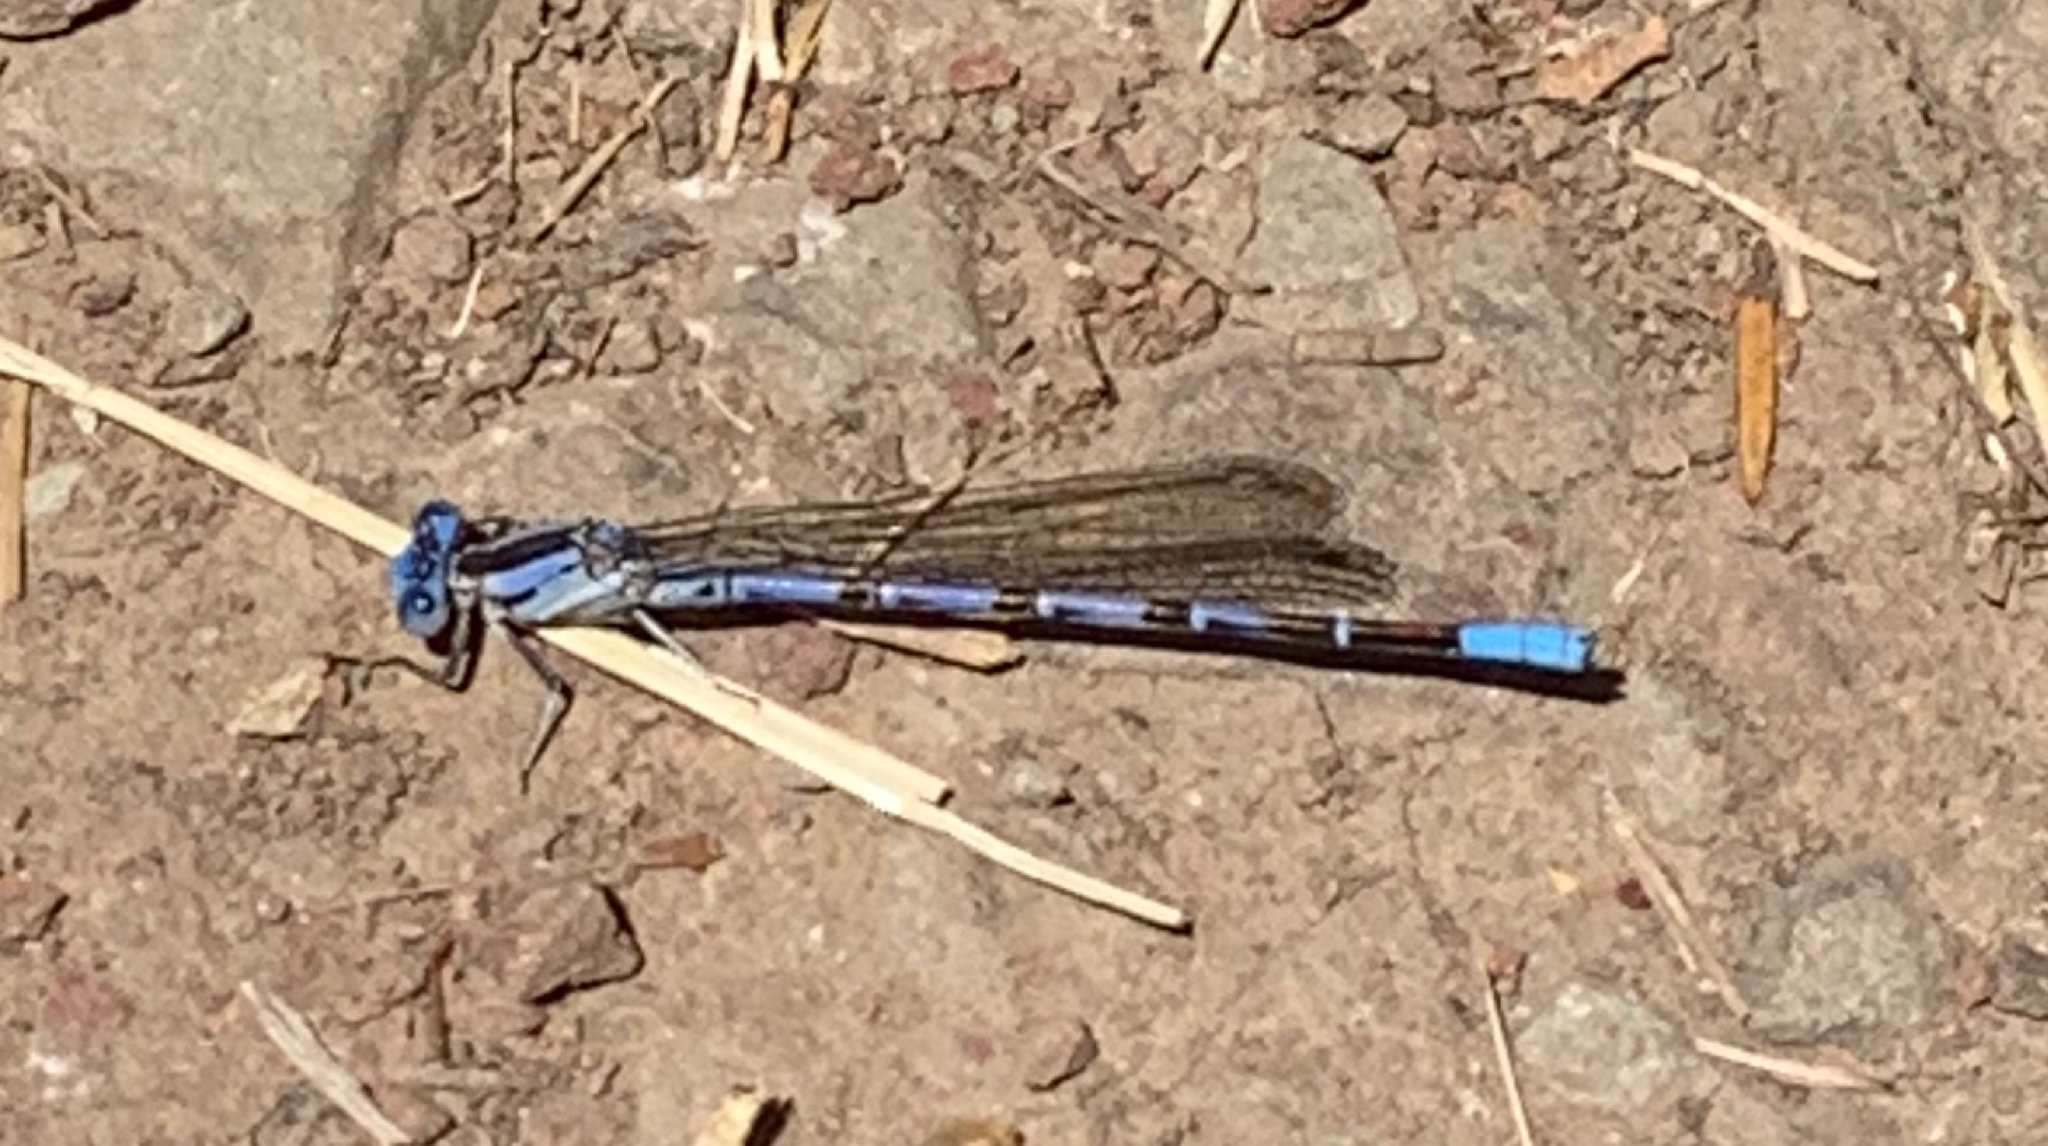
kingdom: Animalia
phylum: Arthropoda
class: Insecta
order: Odonata
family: Coenagrionidae
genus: Argia
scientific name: Argia vivida
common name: Vivid dancer
